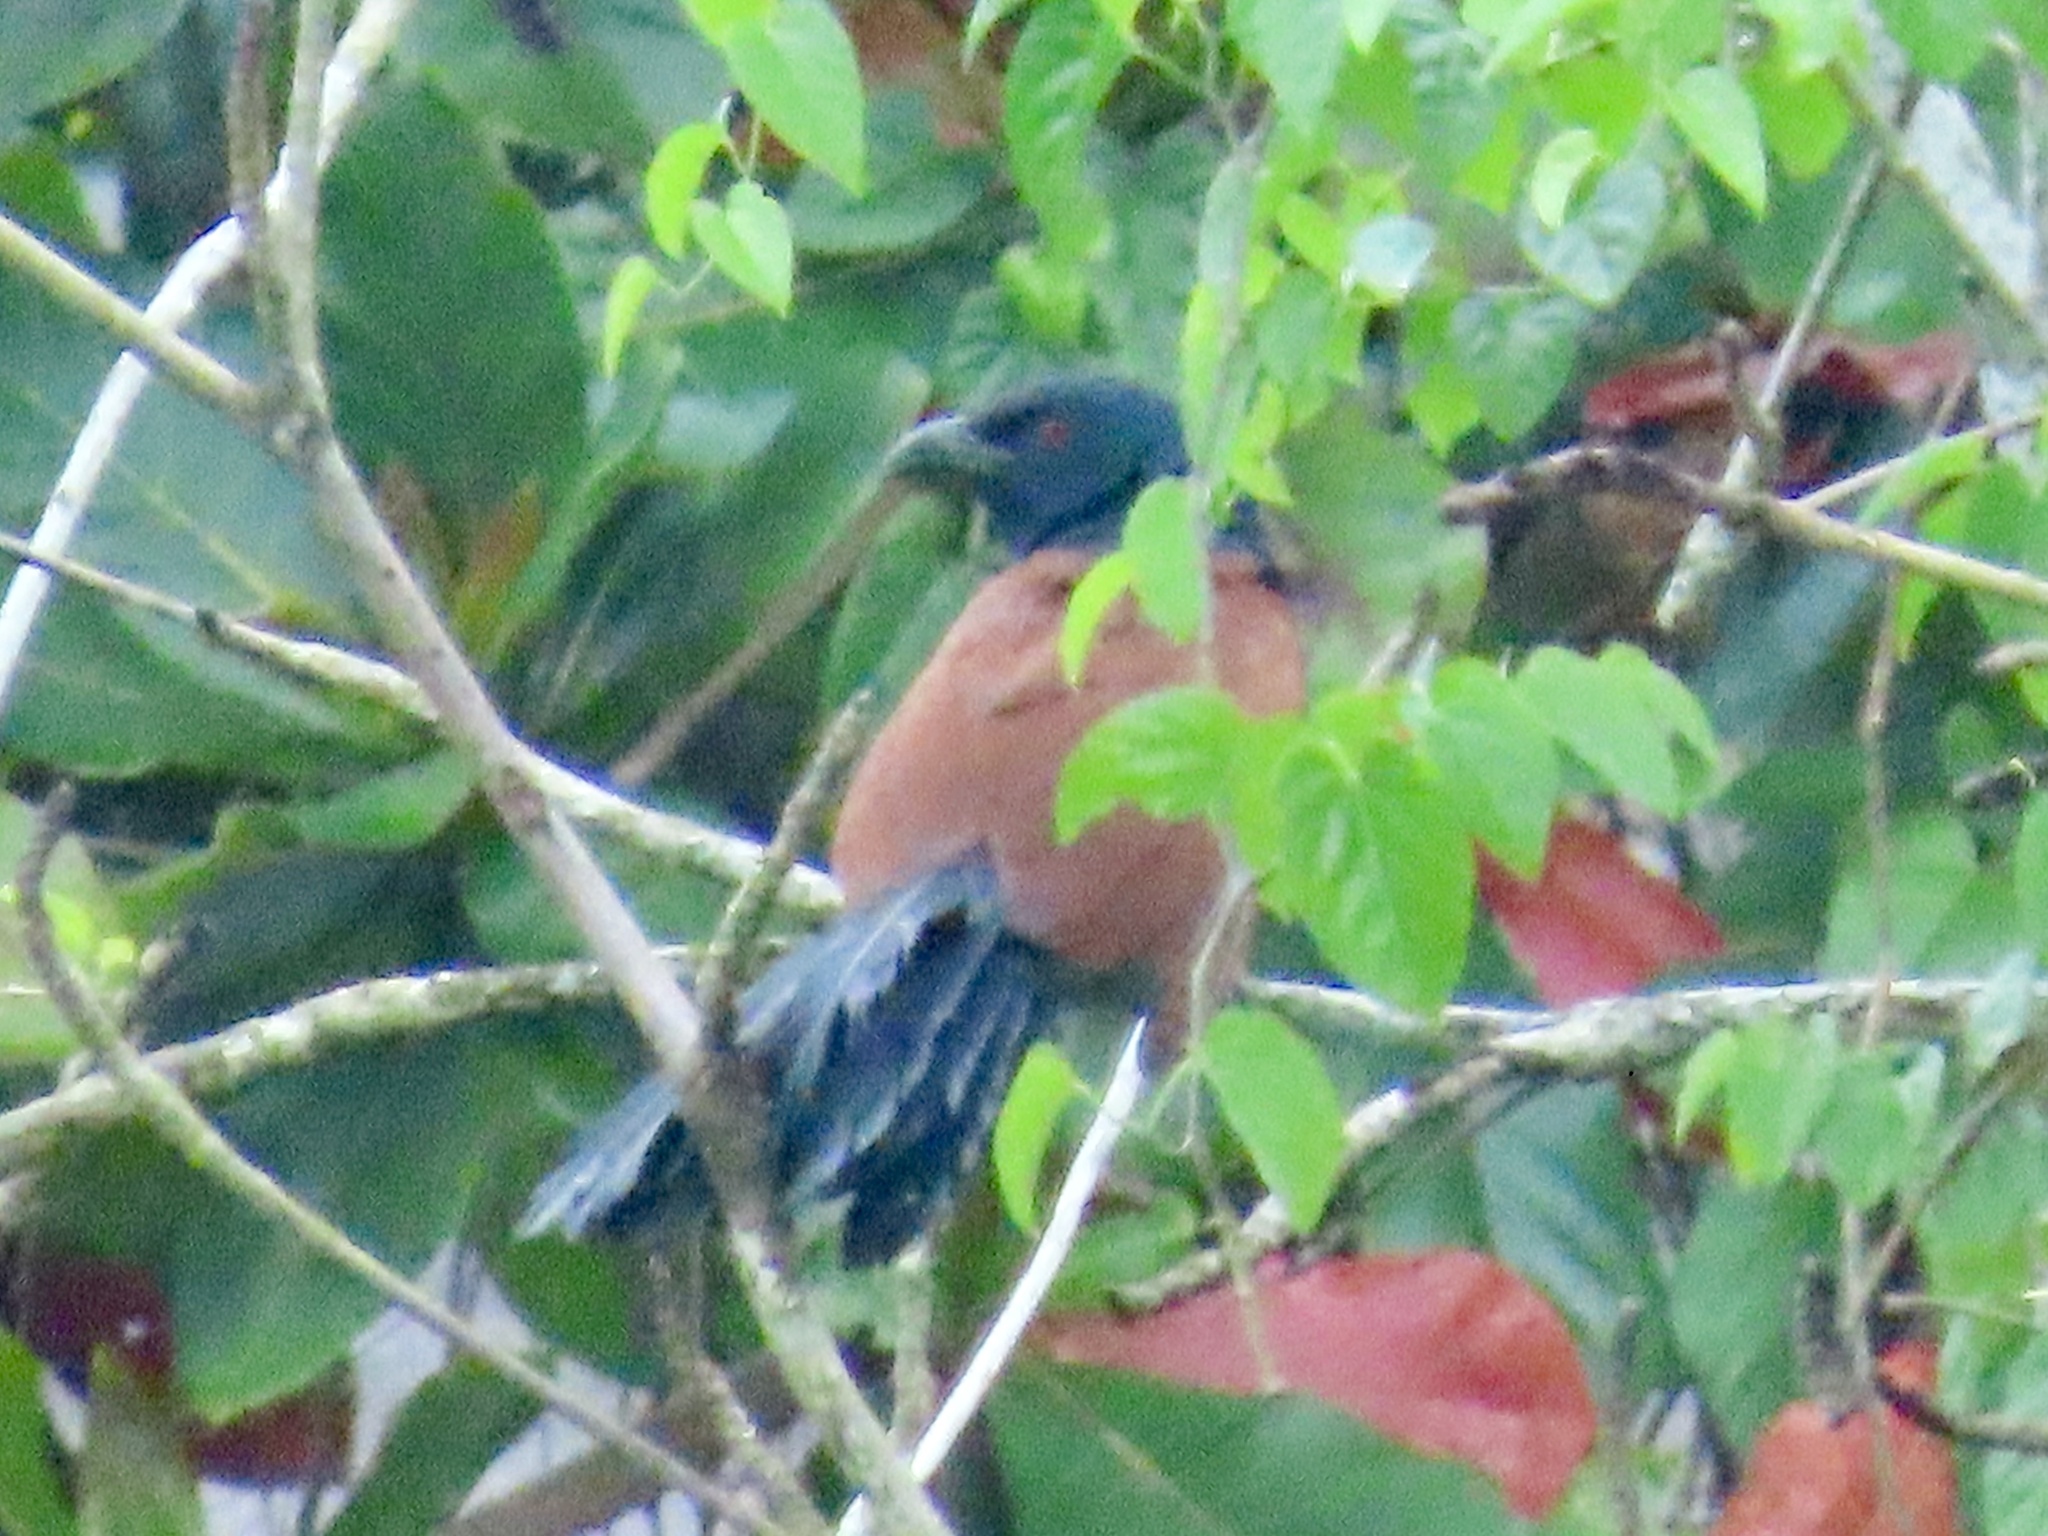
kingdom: Animalia
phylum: Chordata
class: Aves
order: Cuculiformes
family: Cuculidae
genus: Centropus
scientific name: Centropus sinensis
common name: Greater coucal
